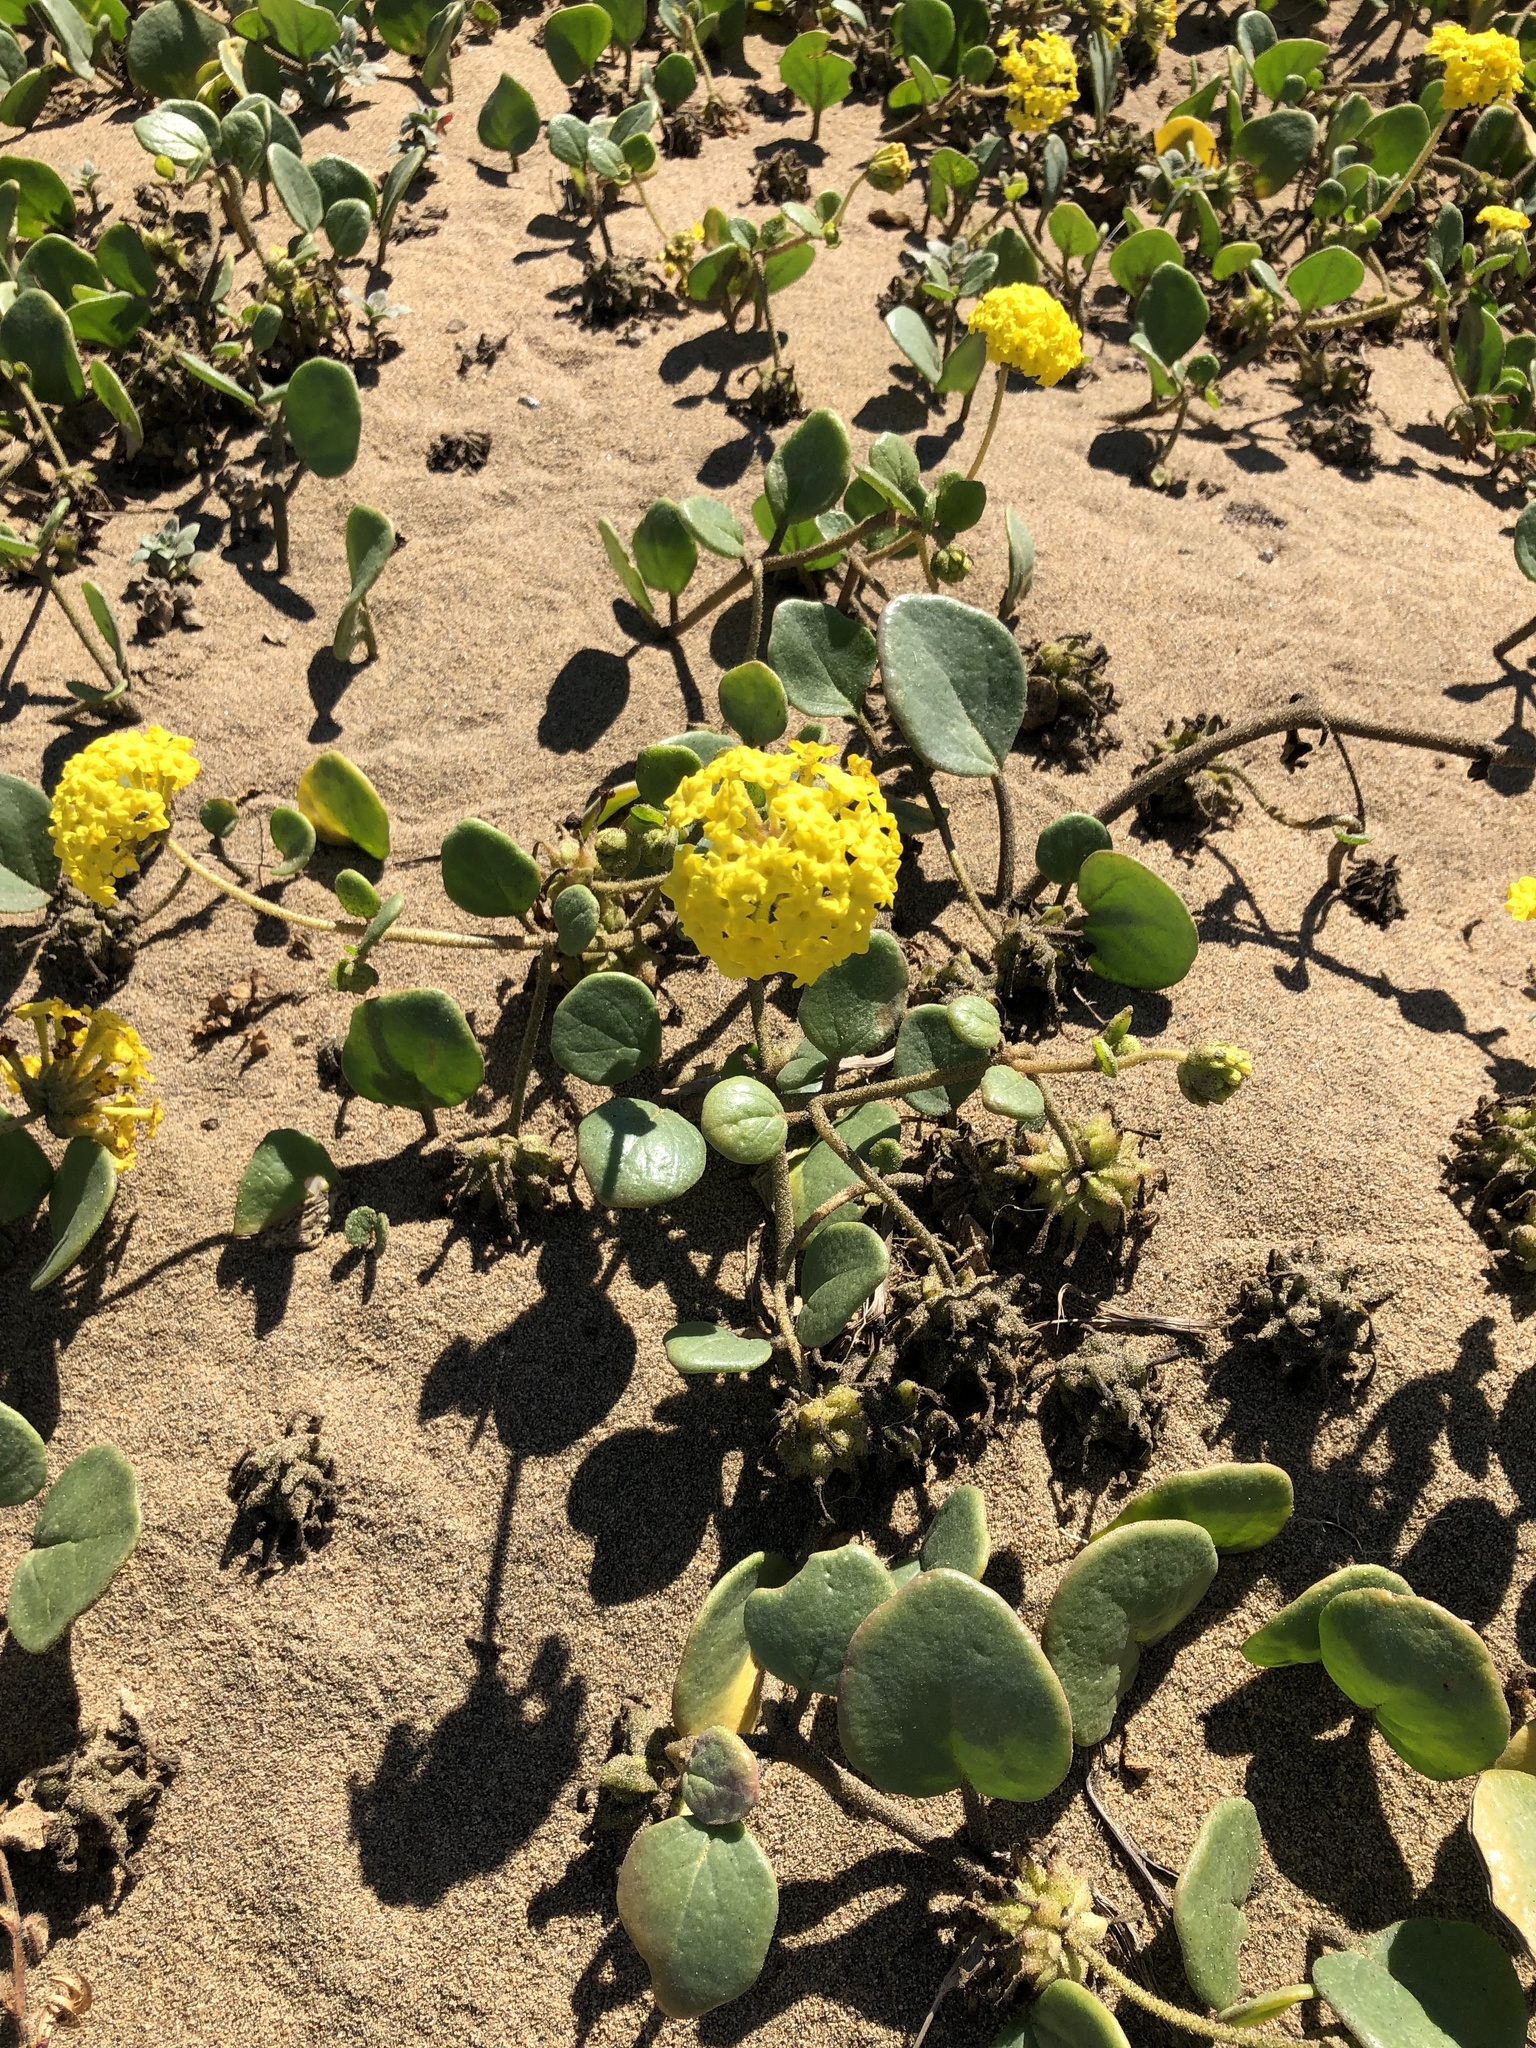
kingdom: Plantae
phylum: Tracheophyta
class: Magnoliopsida
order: Caryophyllales
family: Nyctaginaceae
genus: Abronia
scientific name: Abronia latifolia
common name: Yellow sand-verbena
